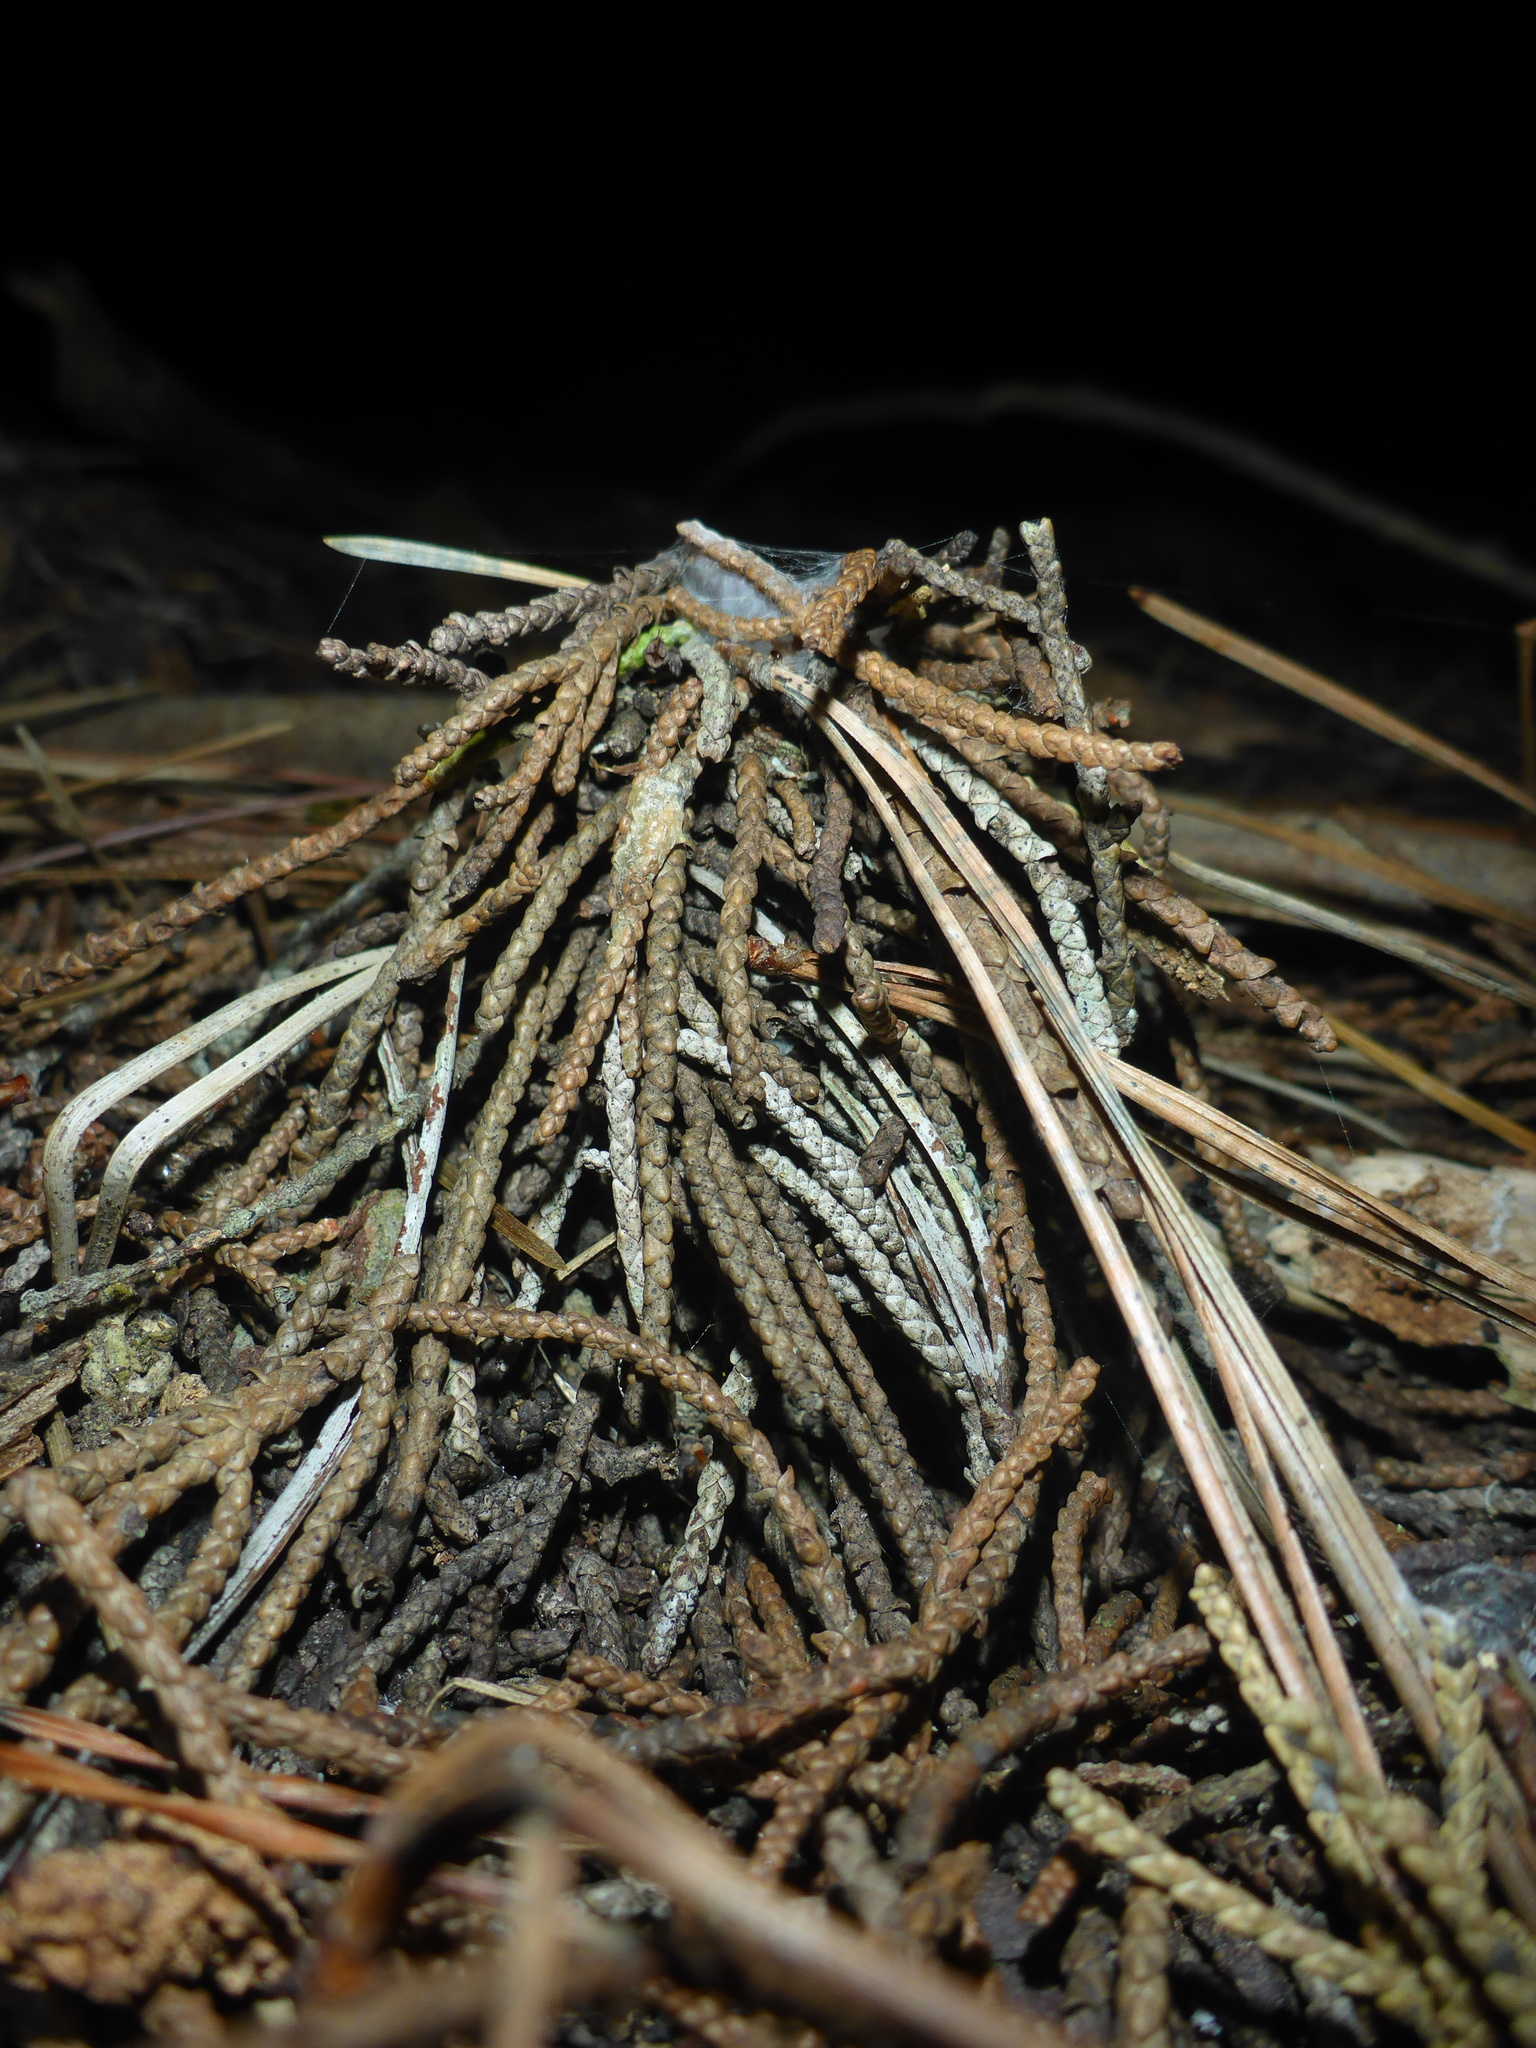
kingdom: Animalia
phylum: Arthropoda
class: Arachnida
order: Araneae
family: Antrodiaetidae
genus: Atypoides
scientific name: Atypoides riversi
